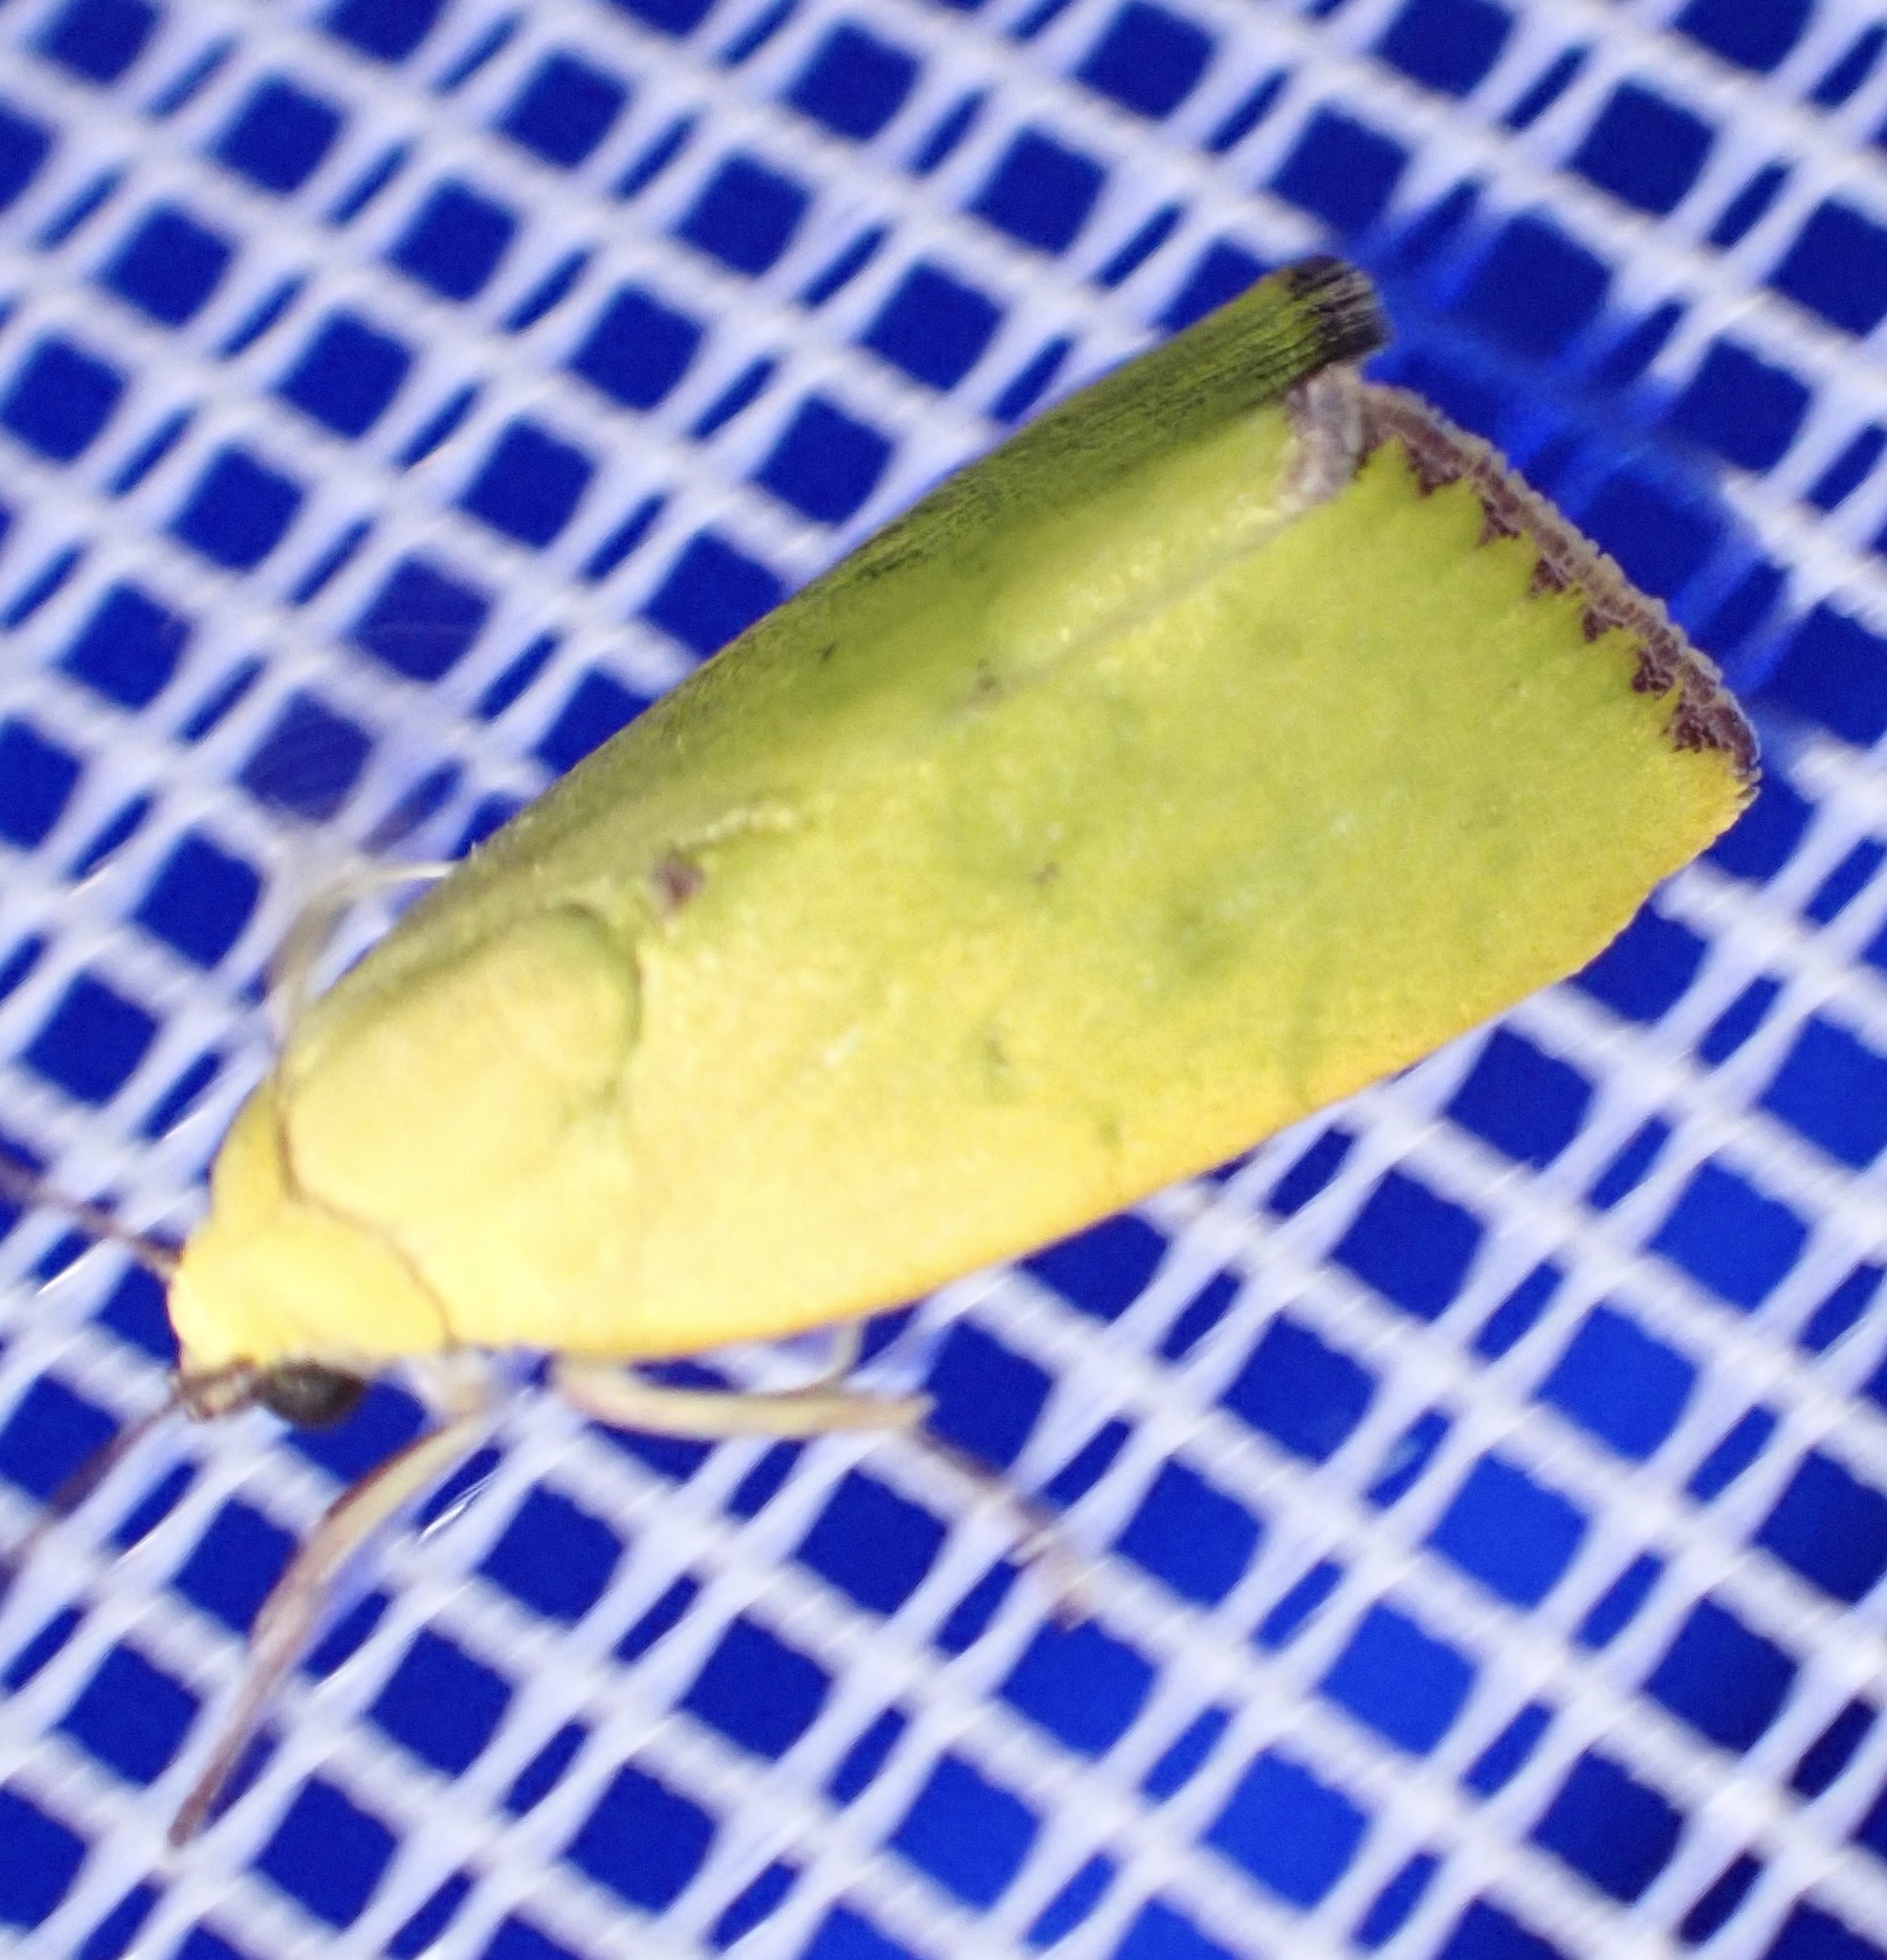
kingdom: Animalia
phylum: Arthropoda
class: Insecta
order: Lepidoptera
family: Nolidae
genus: Earias
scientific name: Earias biplaga
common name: Spiny bollworm
